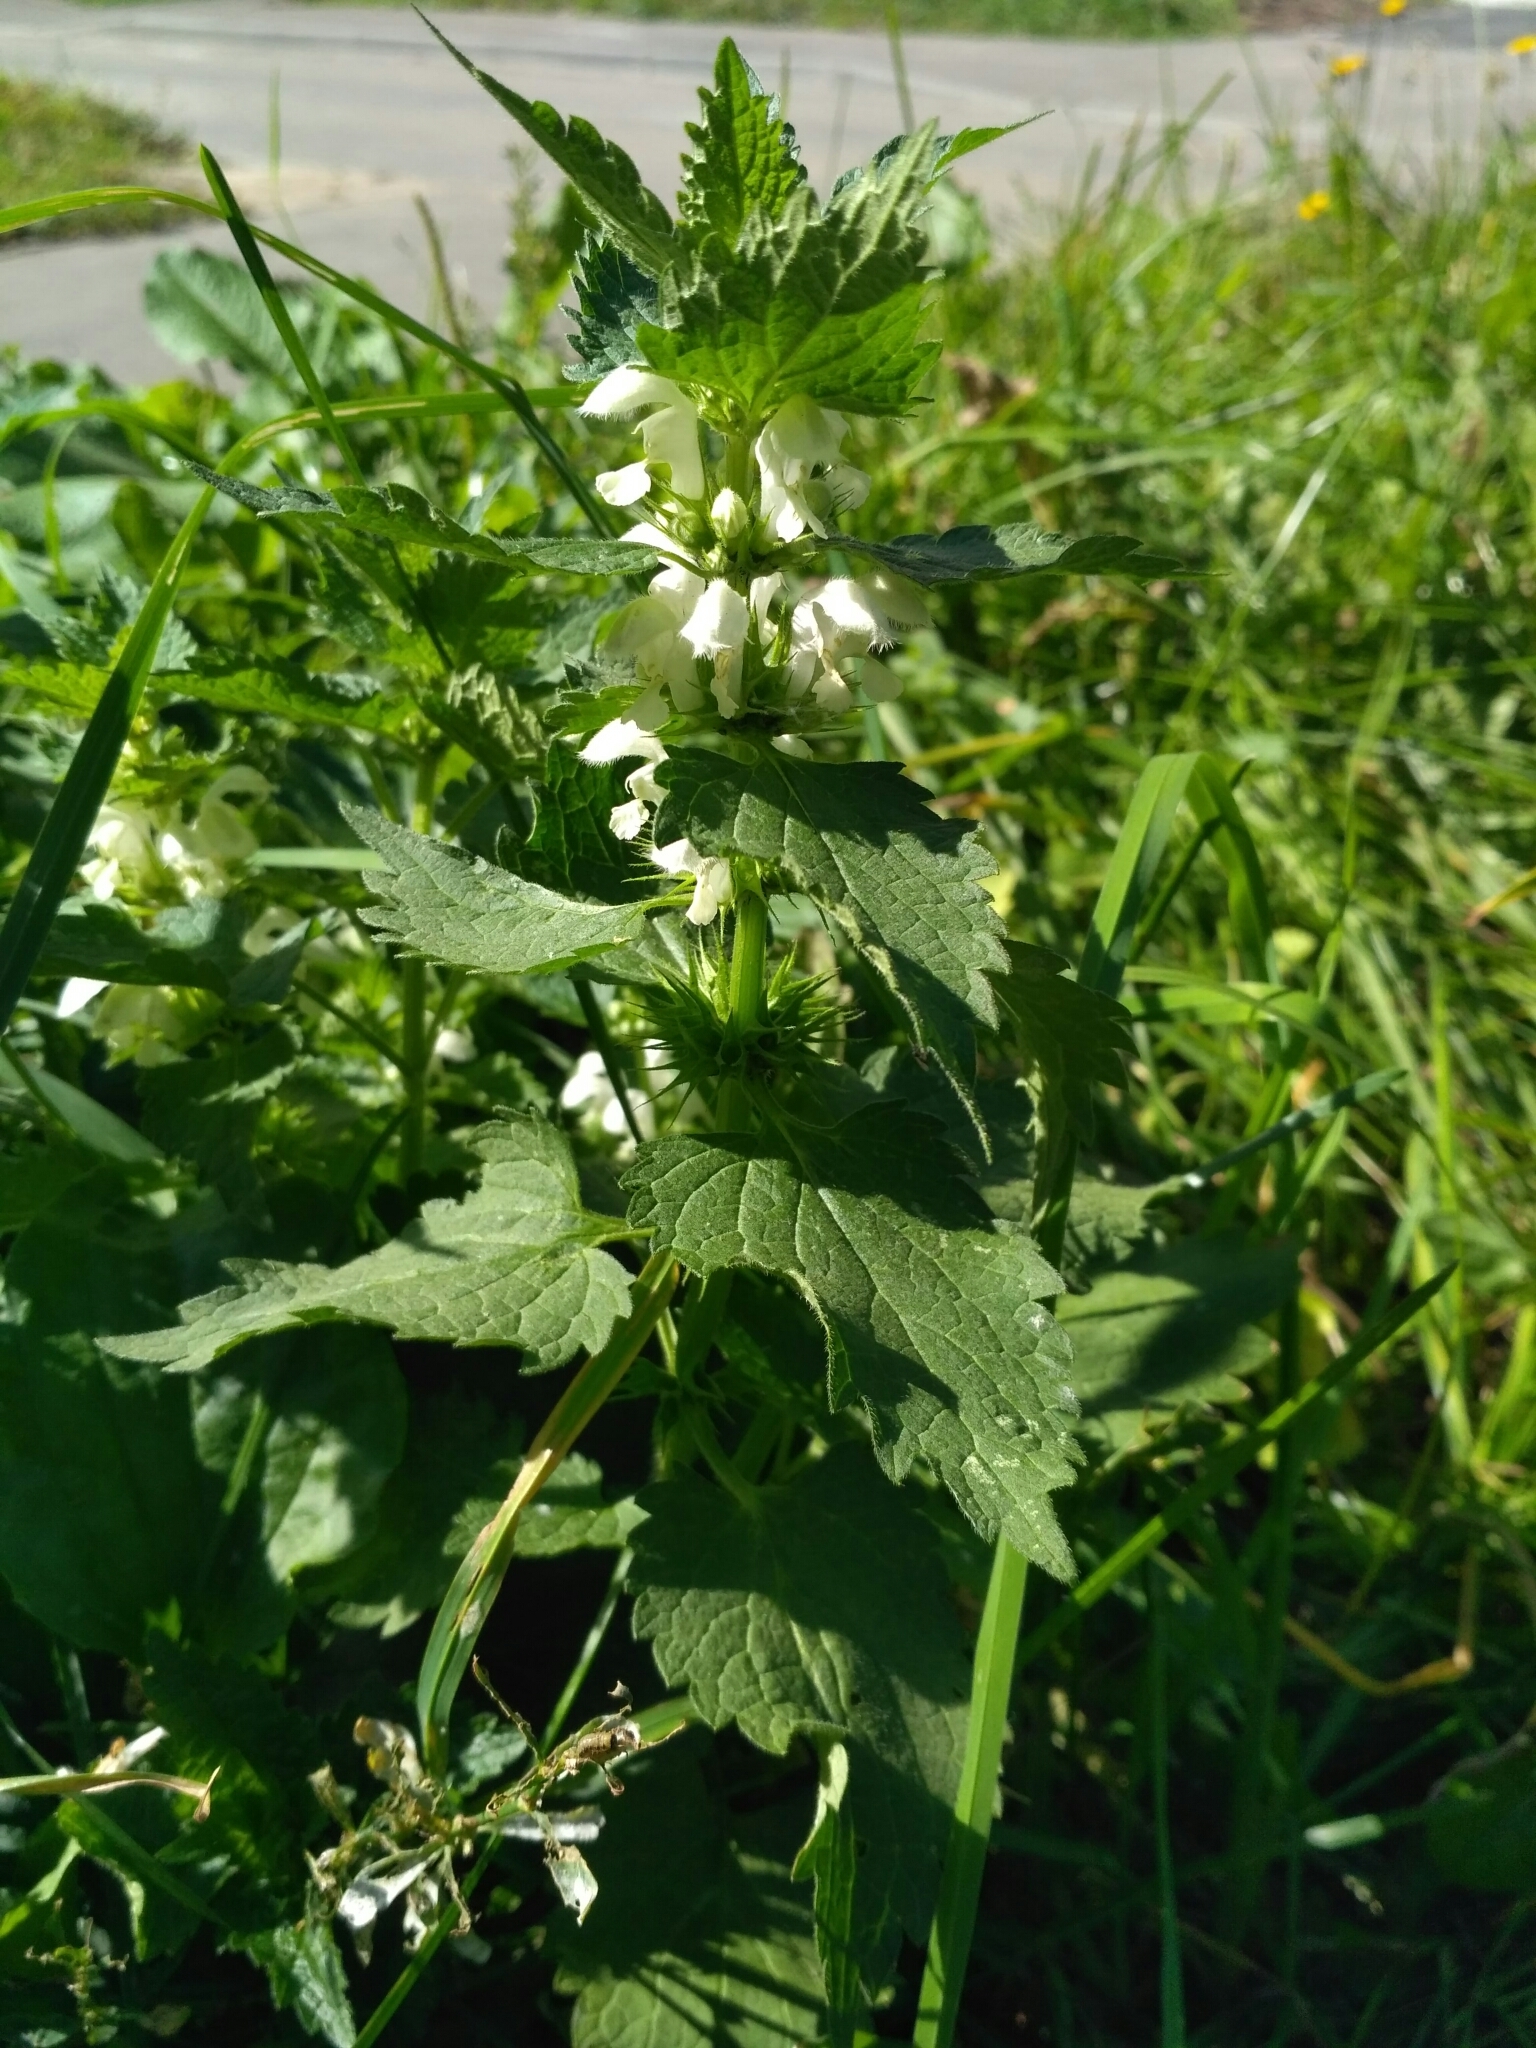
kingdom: Plantae
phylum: Tracheophyta
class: Magnoliopsida
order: Lamiales
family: Lamiaceae
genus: Lamium
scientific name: Lamium album
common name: White dead-nettle
